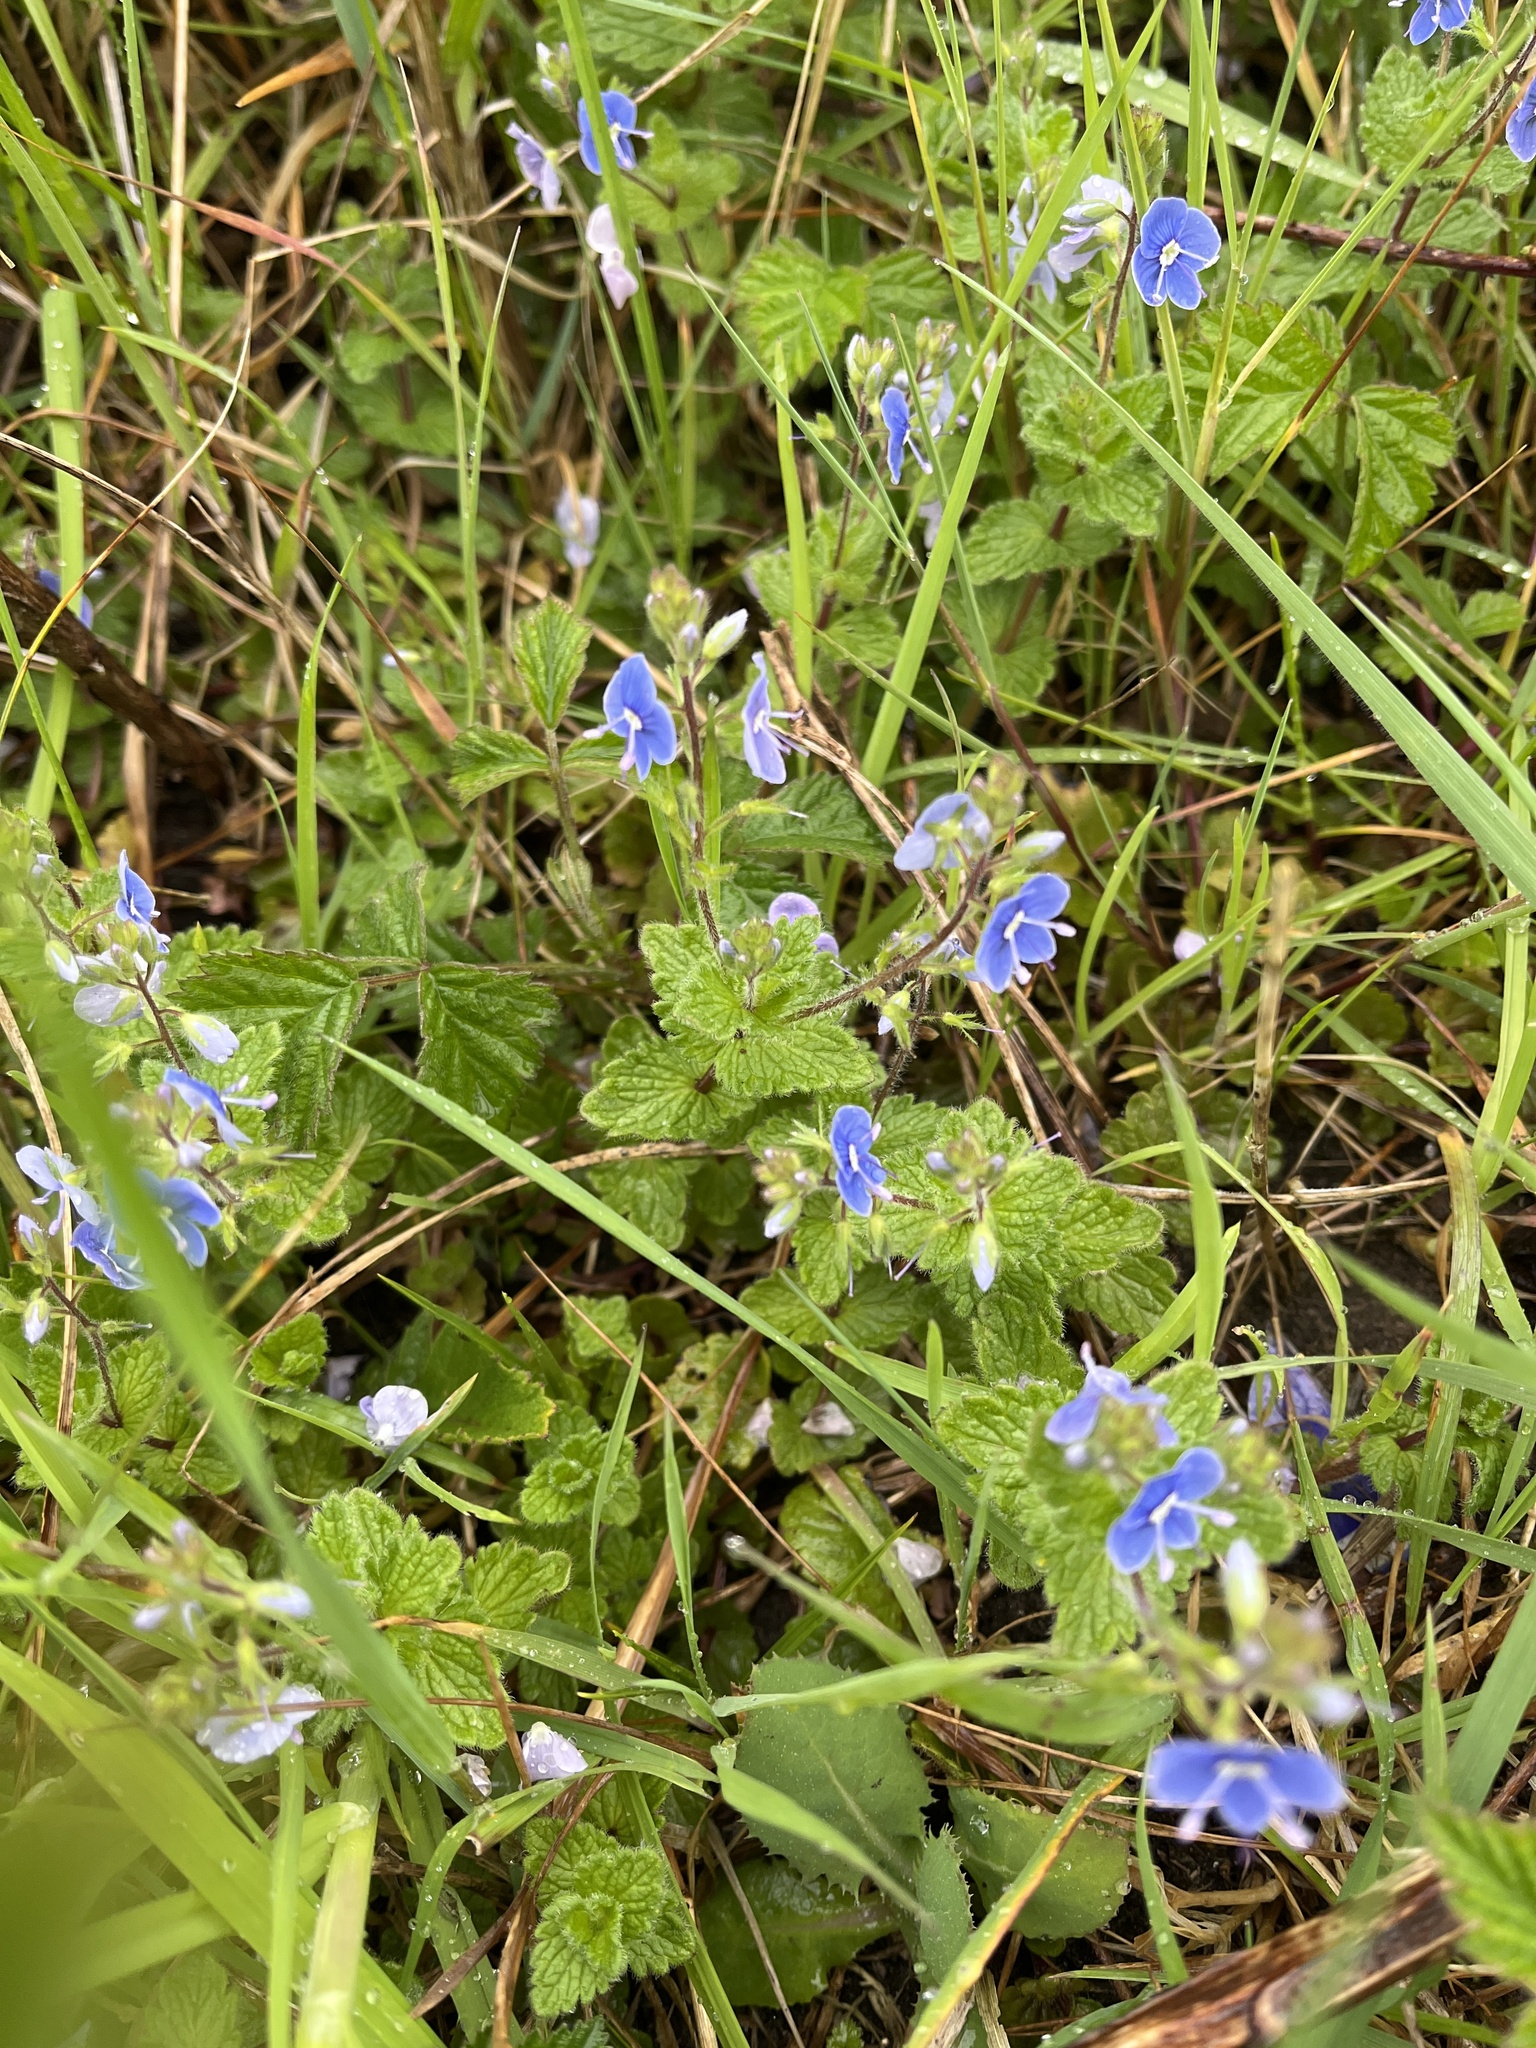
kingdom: Plantae
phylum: Tracheophyta
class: Magnoliopsida
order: Lamiales
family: Plantaginaceae
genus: Veronica
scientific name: Veronica chamaedrys
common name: Germander speedwell
